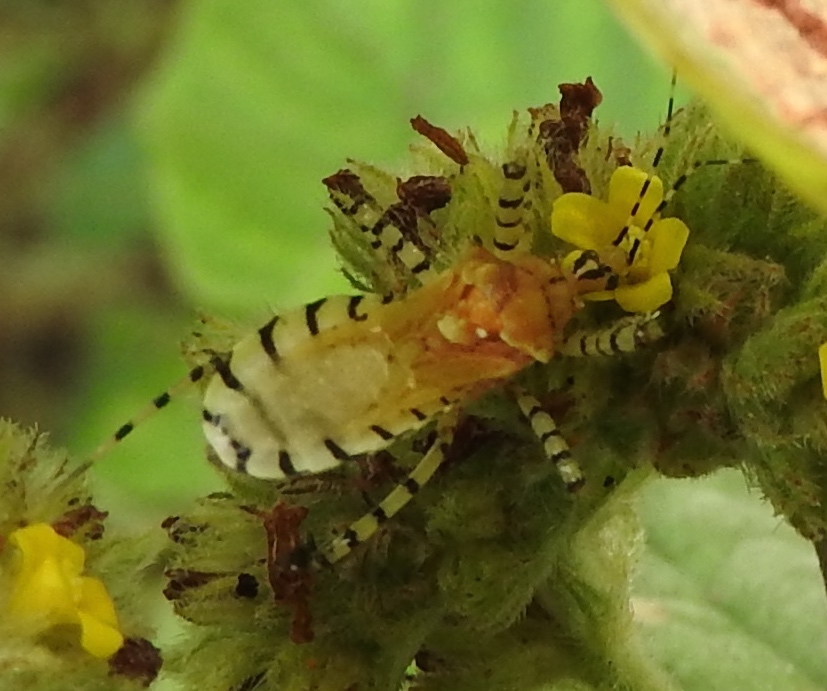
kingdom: Animalia
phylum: Arthropoda
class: Insecta
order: Hemiptera
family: Reduviidae
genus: Pselliopus
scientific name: Pselliopus
